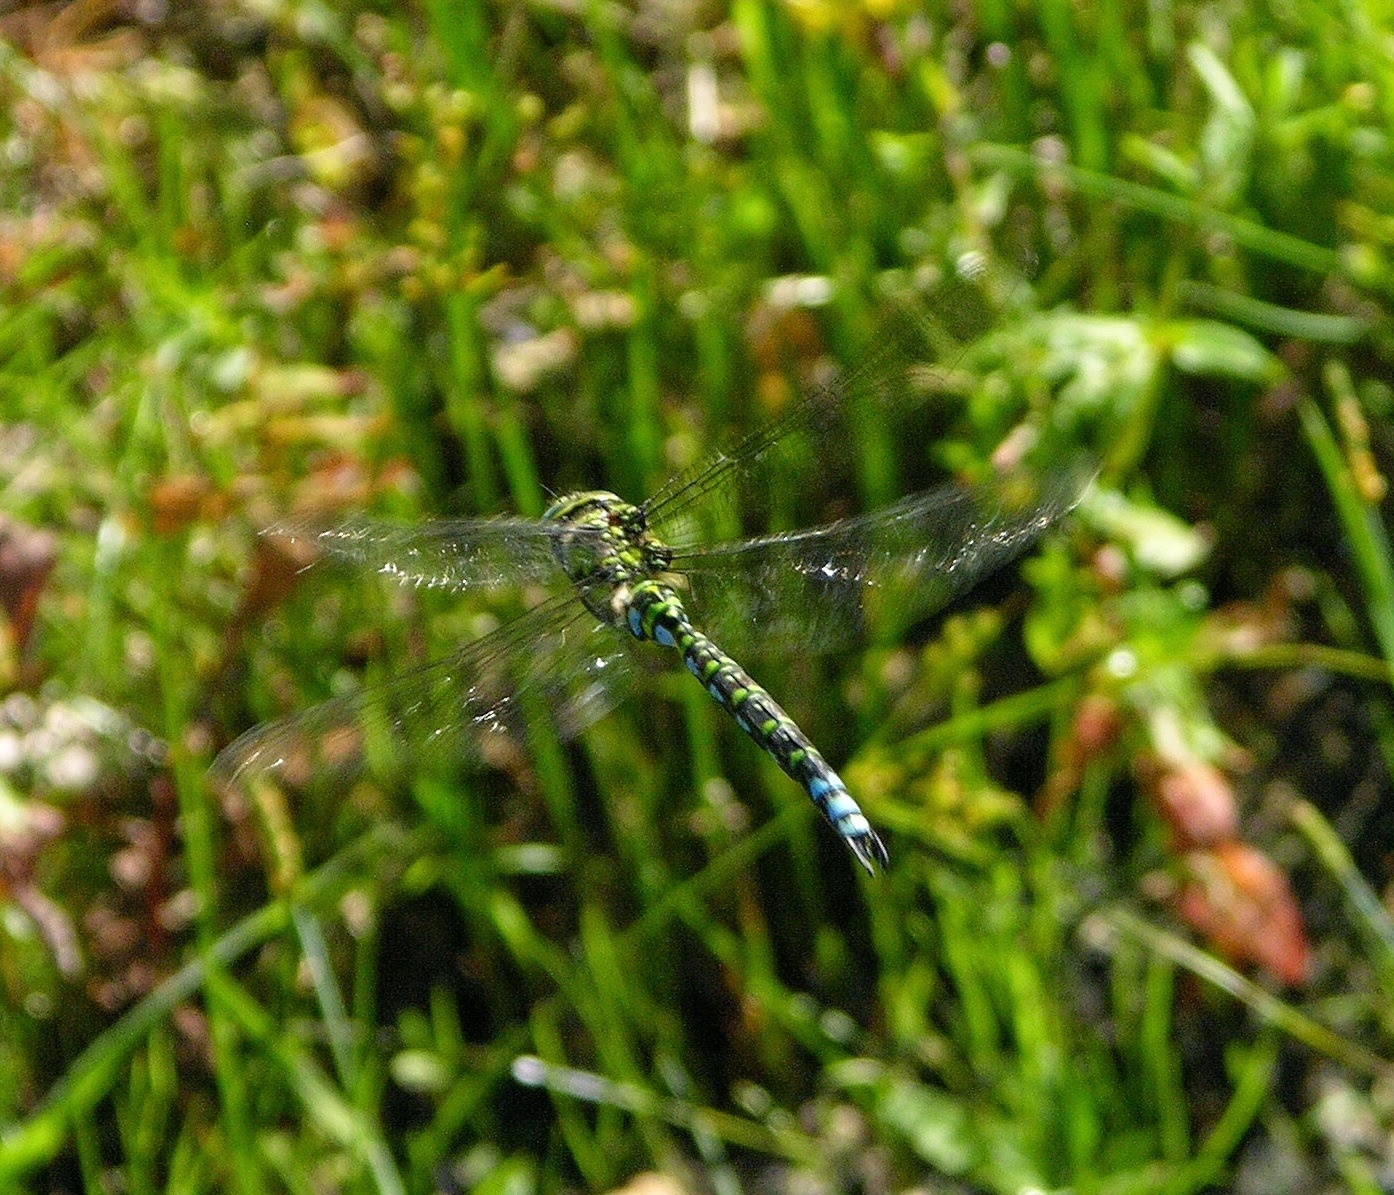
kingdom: Animalia
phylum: Arthropoda
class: Insecta
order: Odonata
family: Aeshnidae
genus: Aeshna
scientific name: Aeshna cyanea
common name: Southern hawker
